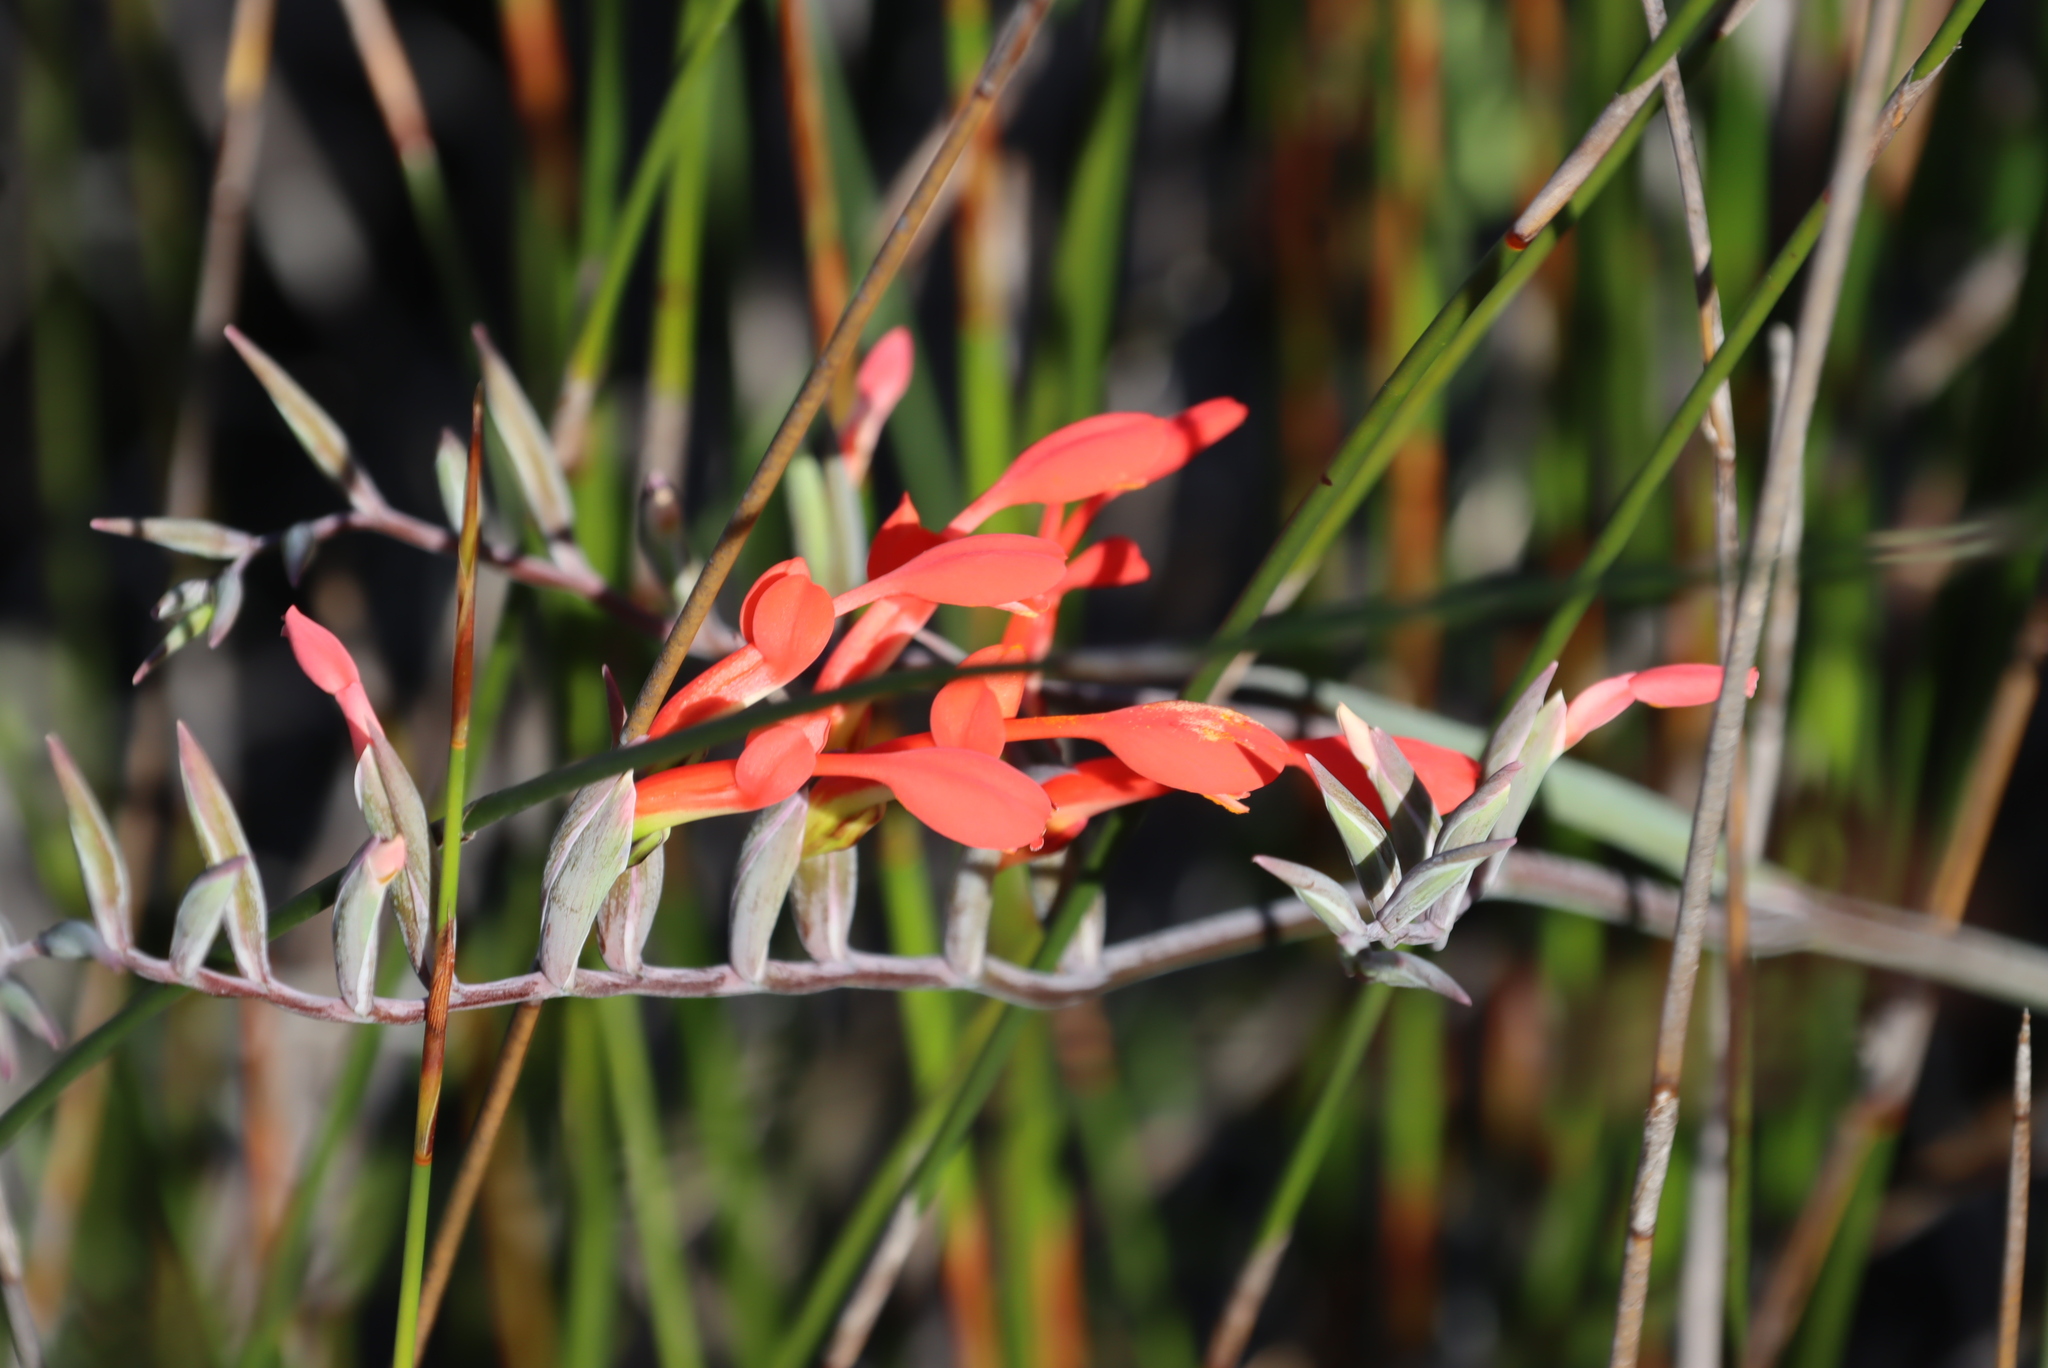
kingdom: Plantae
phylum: Tracheophyta
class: Liliopsida
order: Asparagales
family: Iridaceae
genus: Gladiolus
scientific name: Gladiolus cunonius
